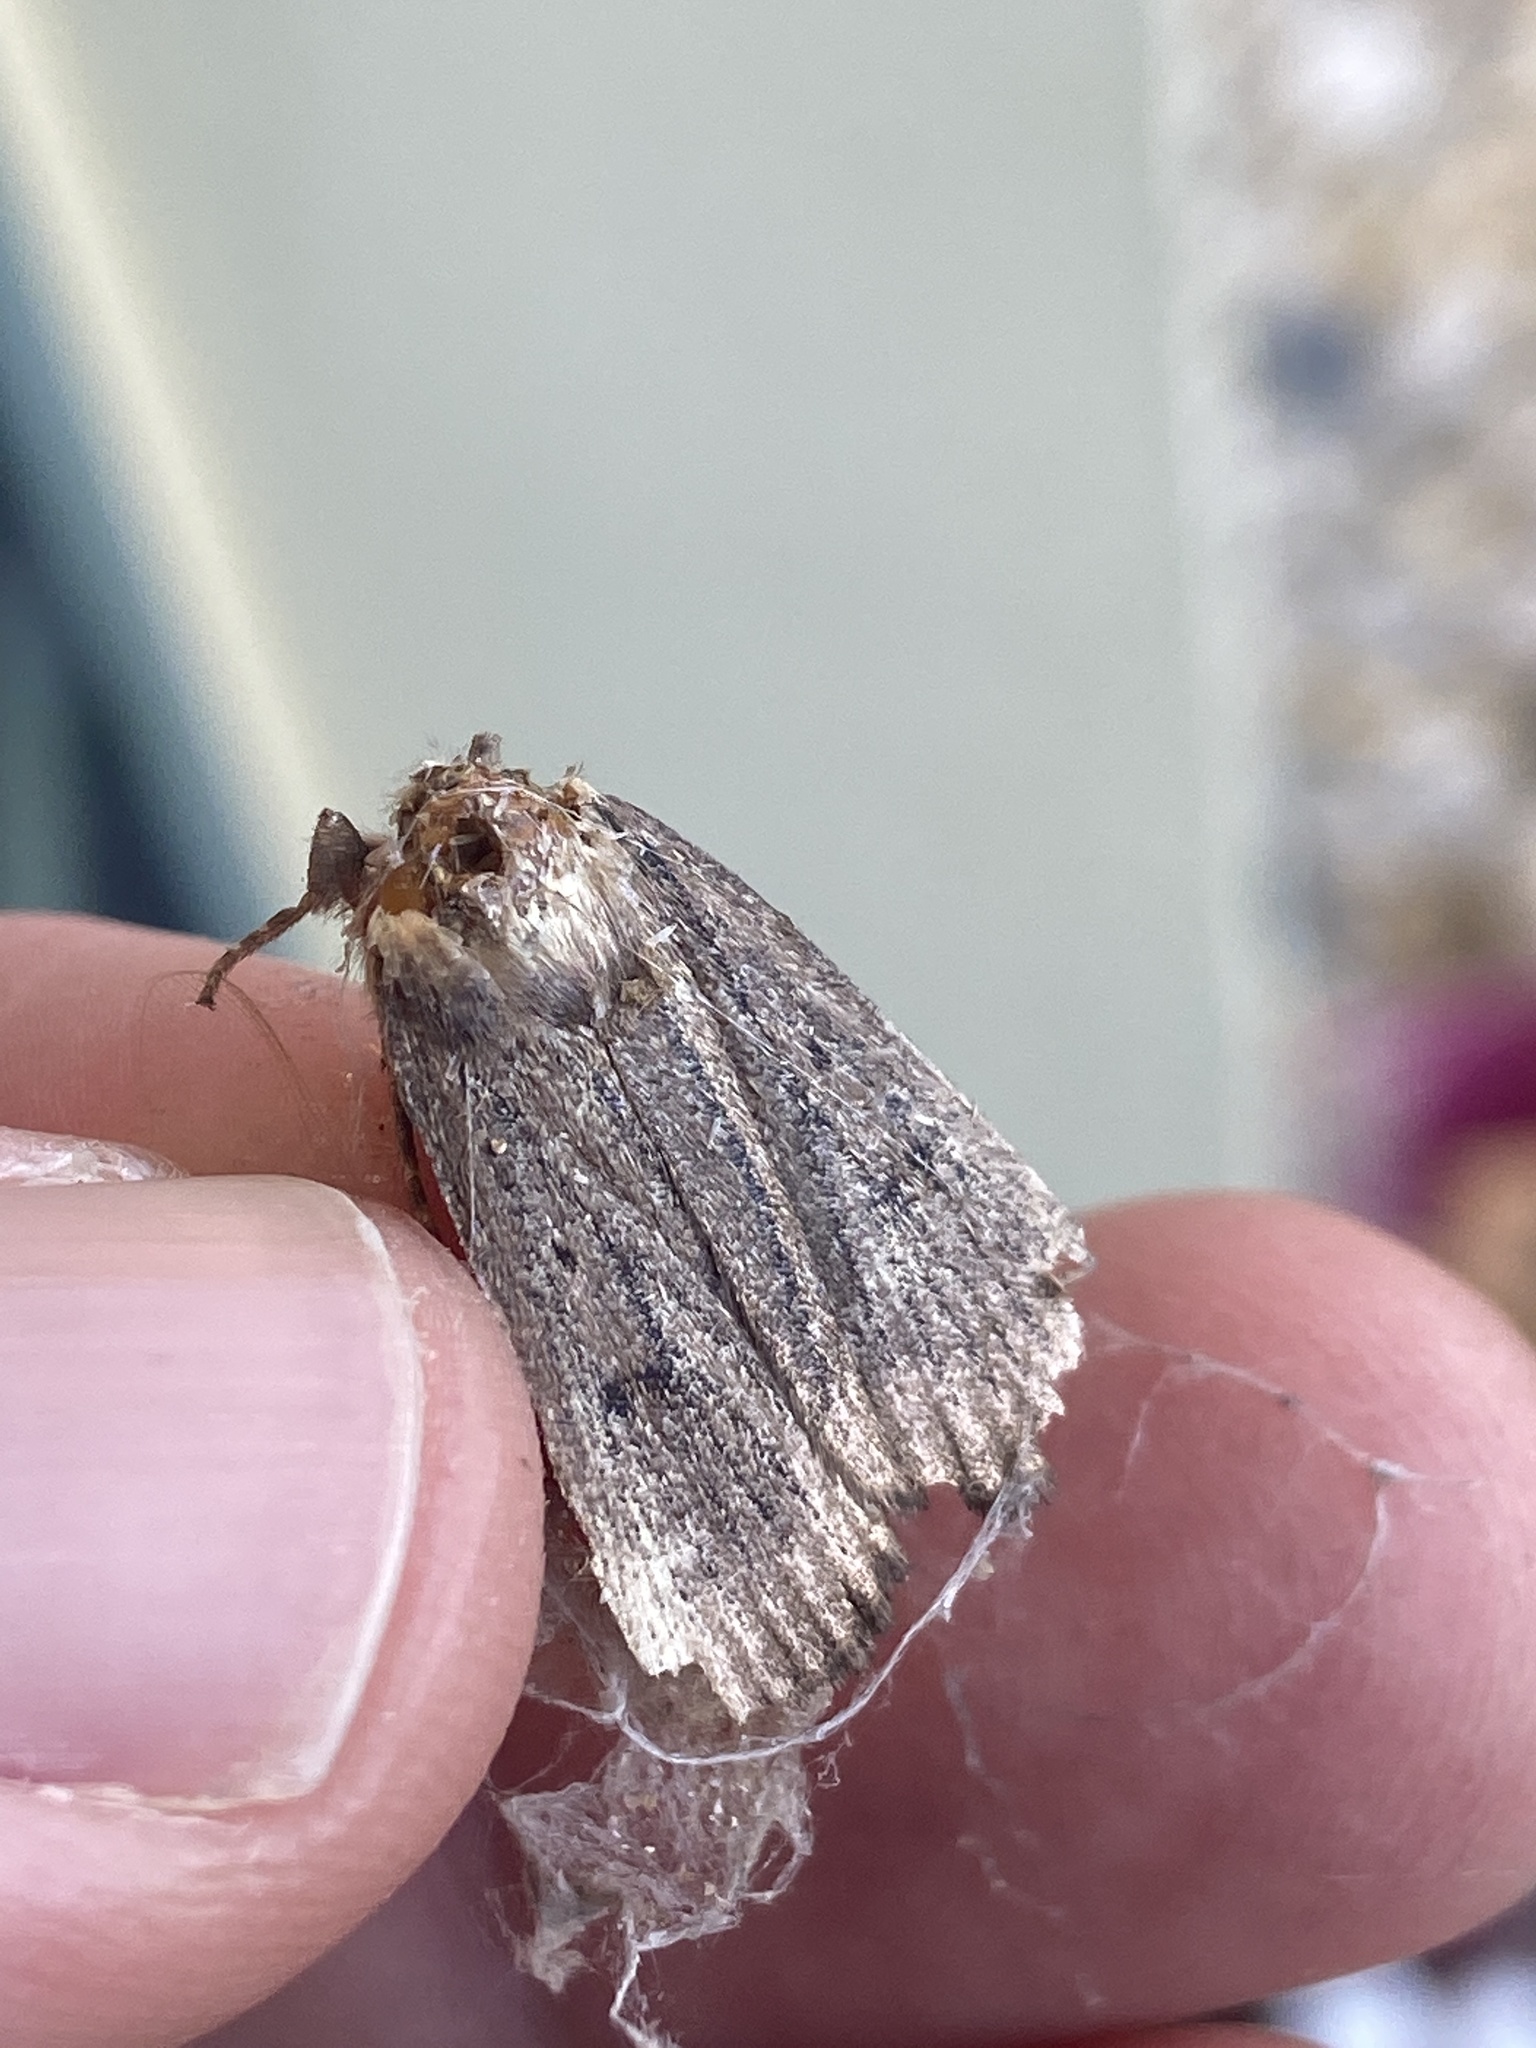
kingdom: Animalia
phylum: Arthropoda
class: Insecta
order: Lepidoptera
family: Noctuidae
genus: Amphipyra
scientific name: Amphipyra tragopoginis
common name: Mouse moth
